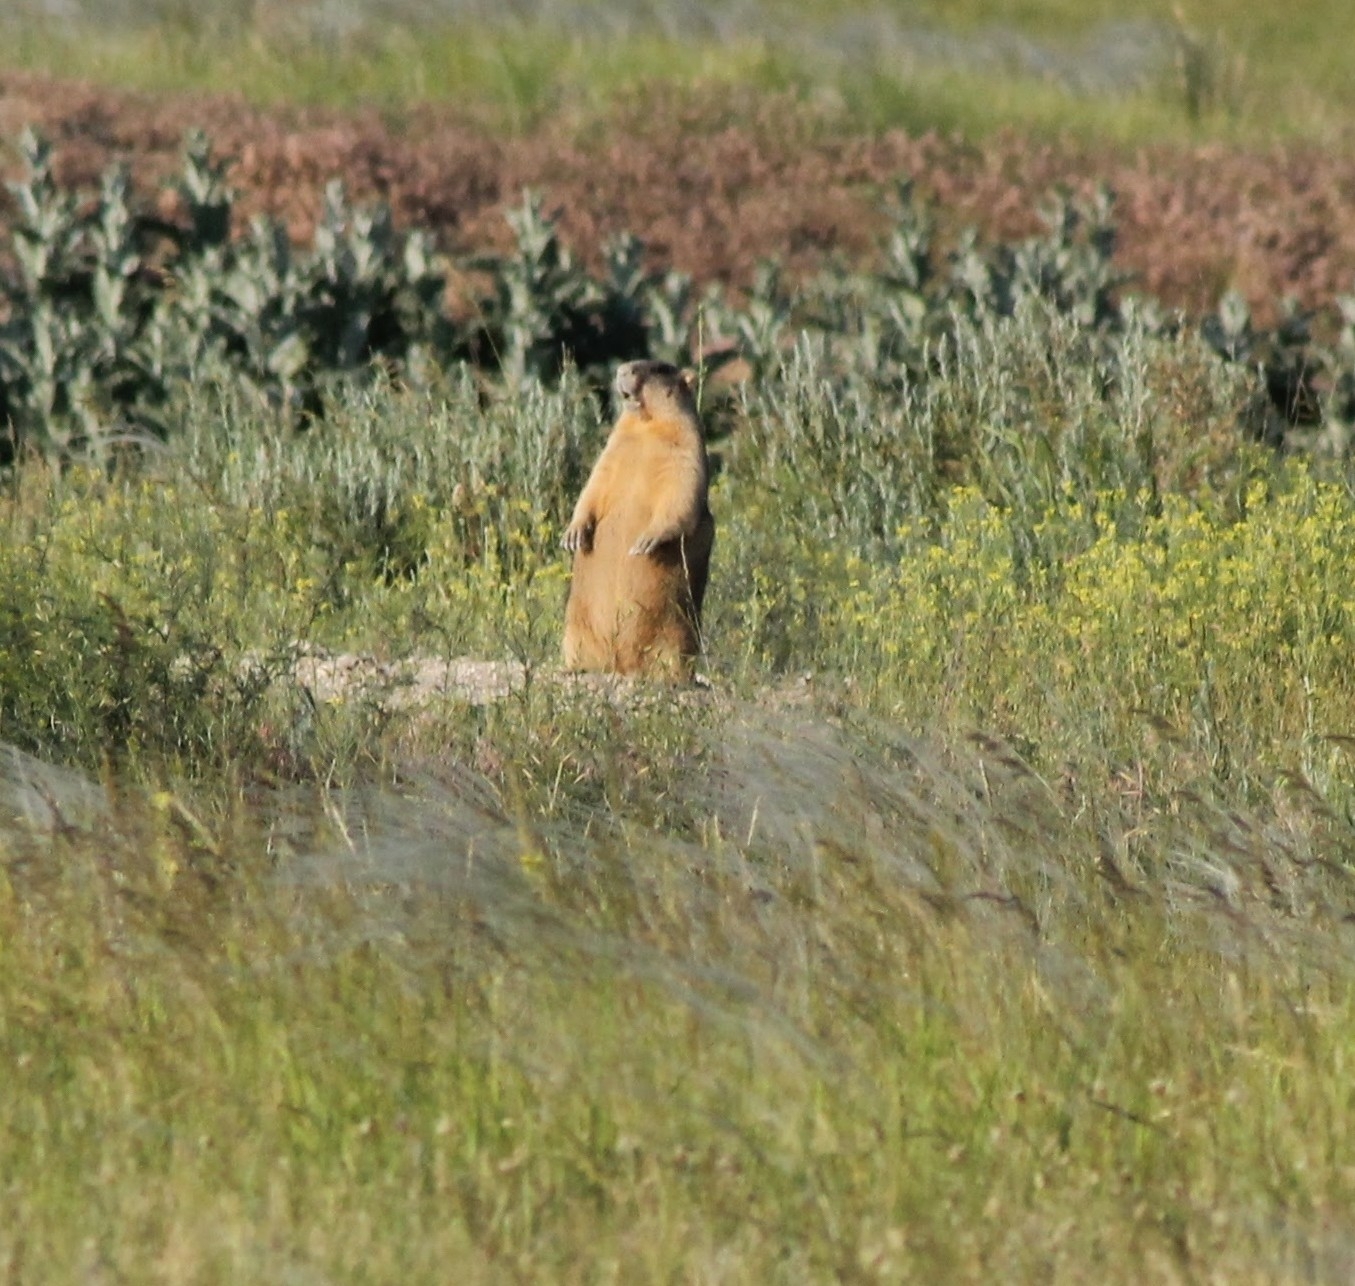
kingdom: Animalia
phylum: Chordata
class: Mammalia
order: Rodentia
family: Sciuridae
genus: Marmota
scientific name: Marmota bobak
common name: Bobak marmot
